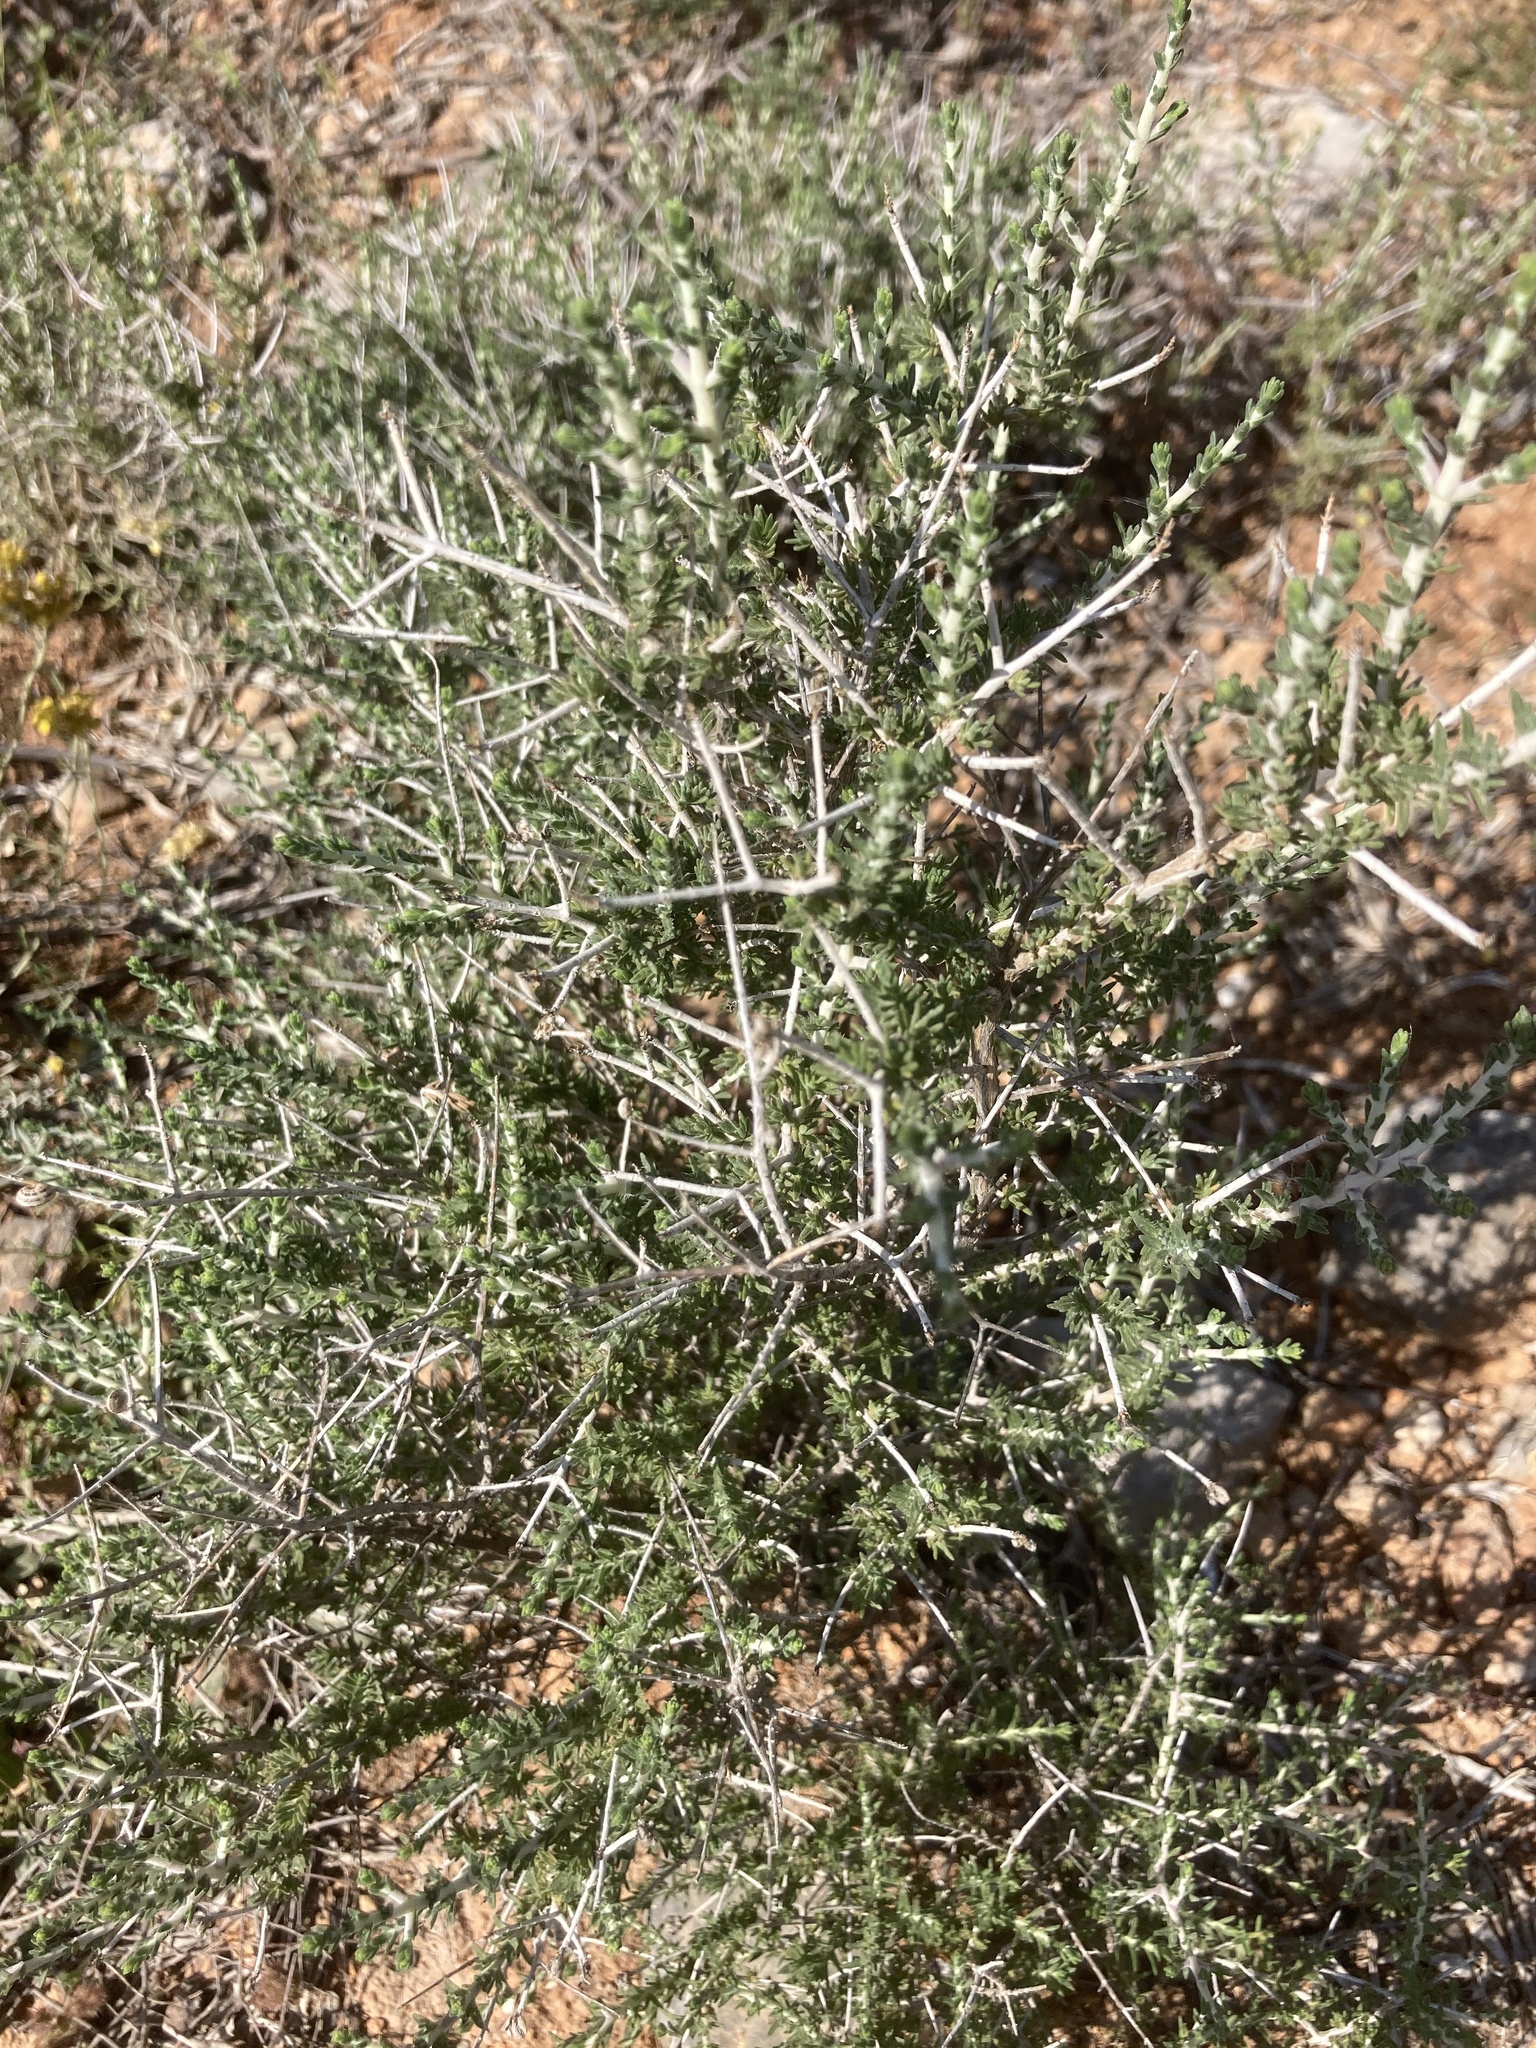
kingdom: Plantae
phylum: Tracheophyta
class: Magnoliopsida
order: Lamiales
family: Lamiaceae
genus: Thymbra
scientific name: Thymbra capitata
